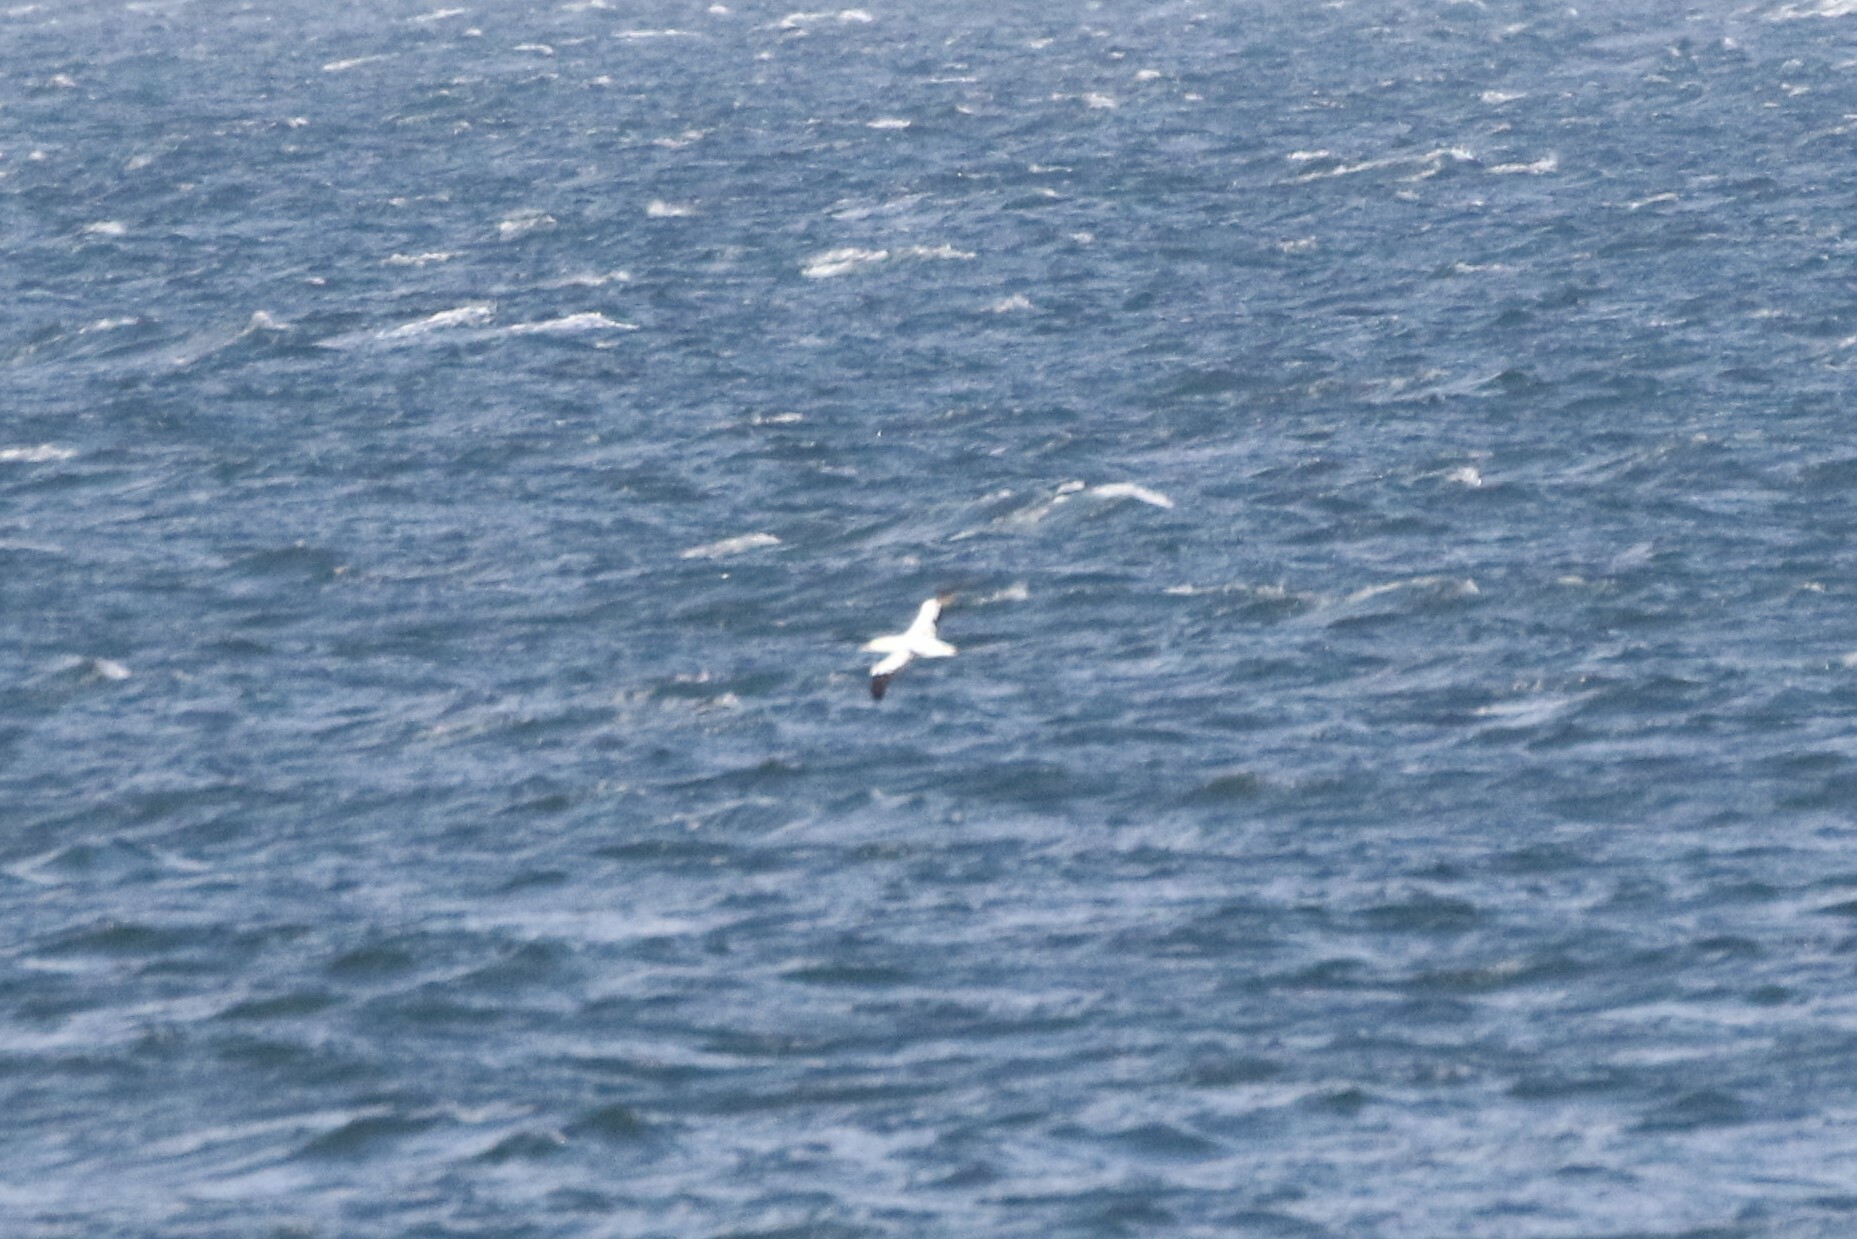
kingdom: Animalia
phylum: Chordata
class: Aves
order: Suliformes
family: Sulidae
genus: Morus
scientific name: Morus bassanus
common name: Northern gannet
